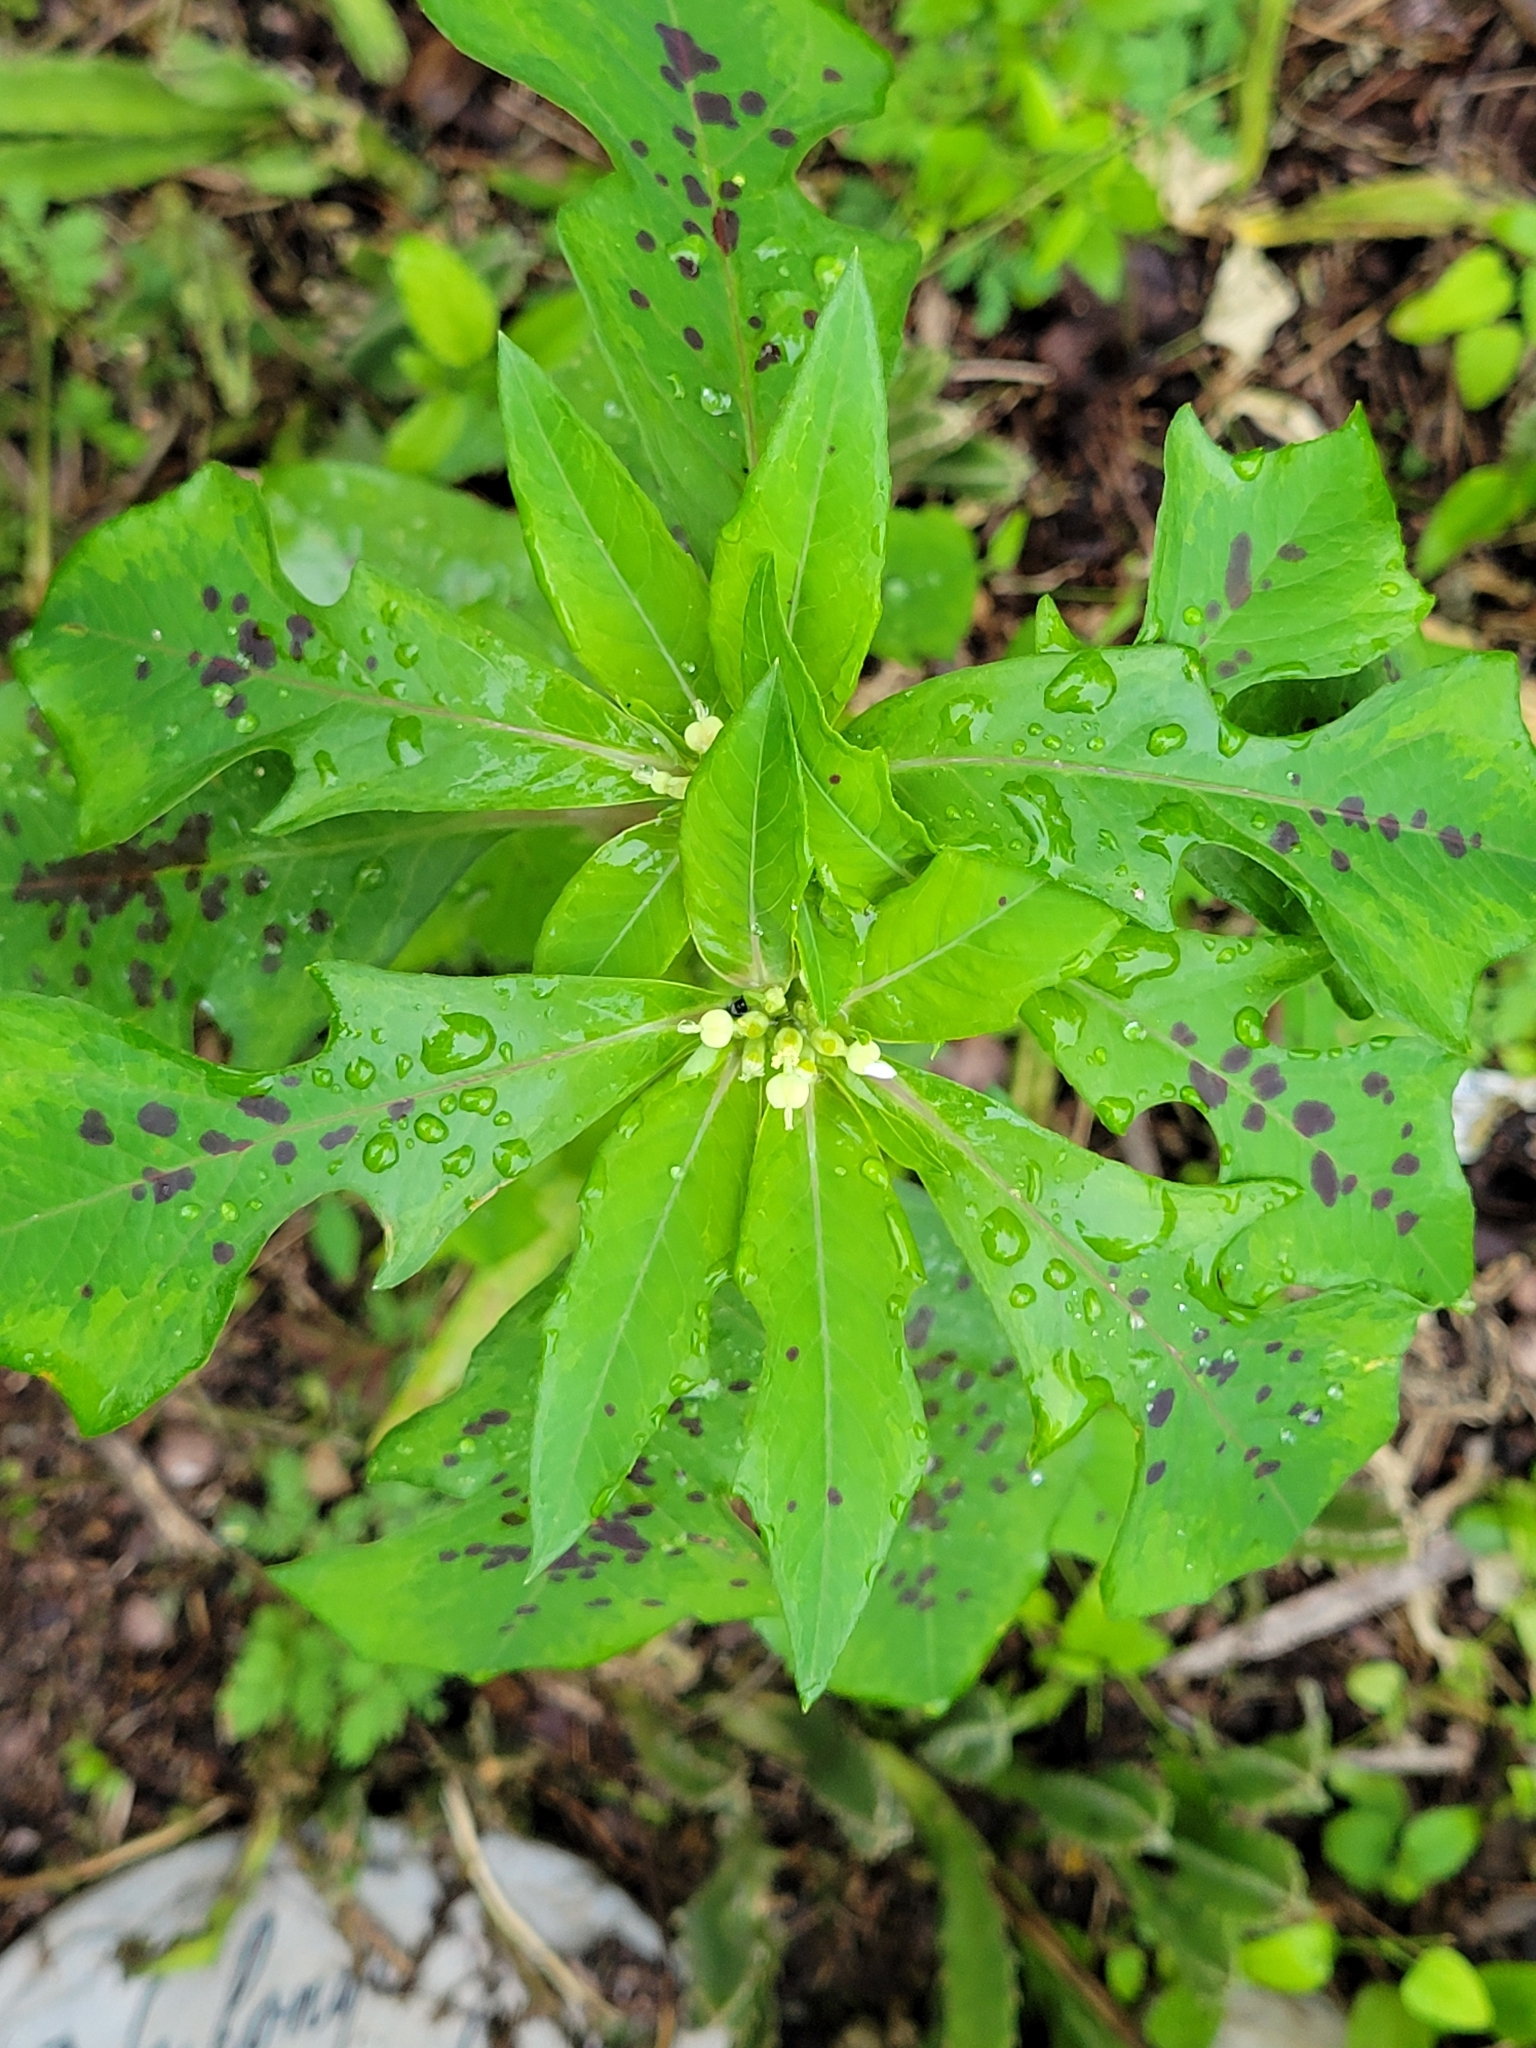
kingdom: Plantae
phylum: Tracheophyta
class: Magnoliopsida
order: Malpighiales
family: Euphorbiaceae
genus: Euphorbia
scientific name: Euphorbia heterophylla
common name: Mexican fireplant
